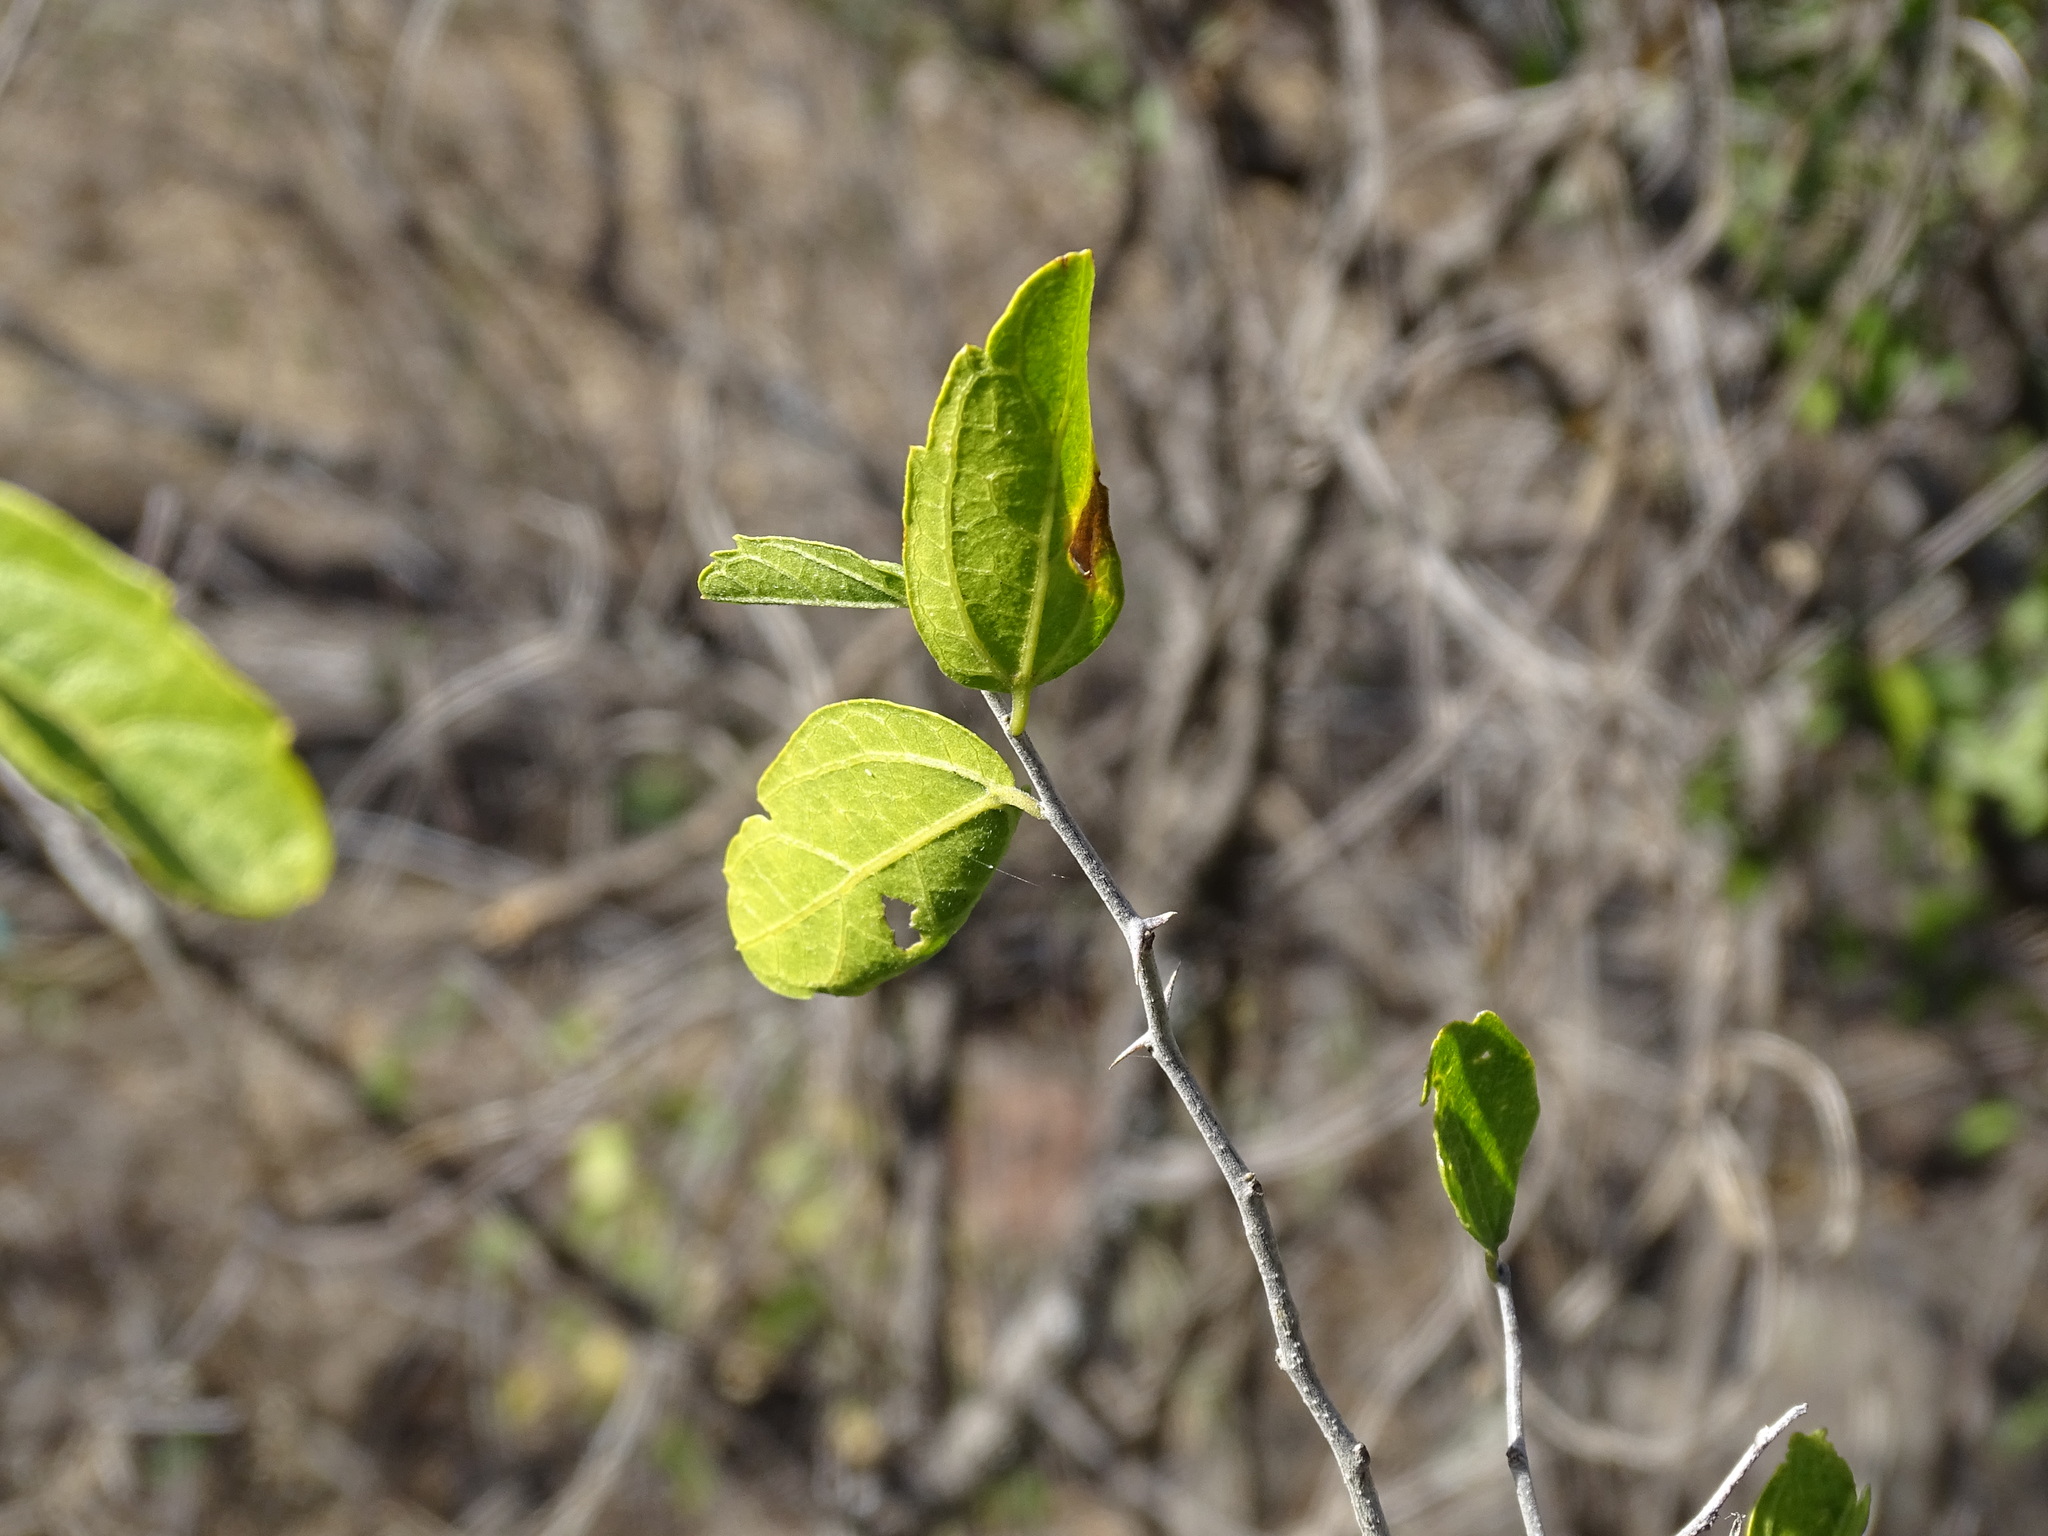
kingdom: Plantae
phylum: Tracheophyta
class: Magnoliopsida
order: Rosales
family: Cannabaceae
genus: Celtis
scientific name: Celtis pallida
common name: Desert hackberry
